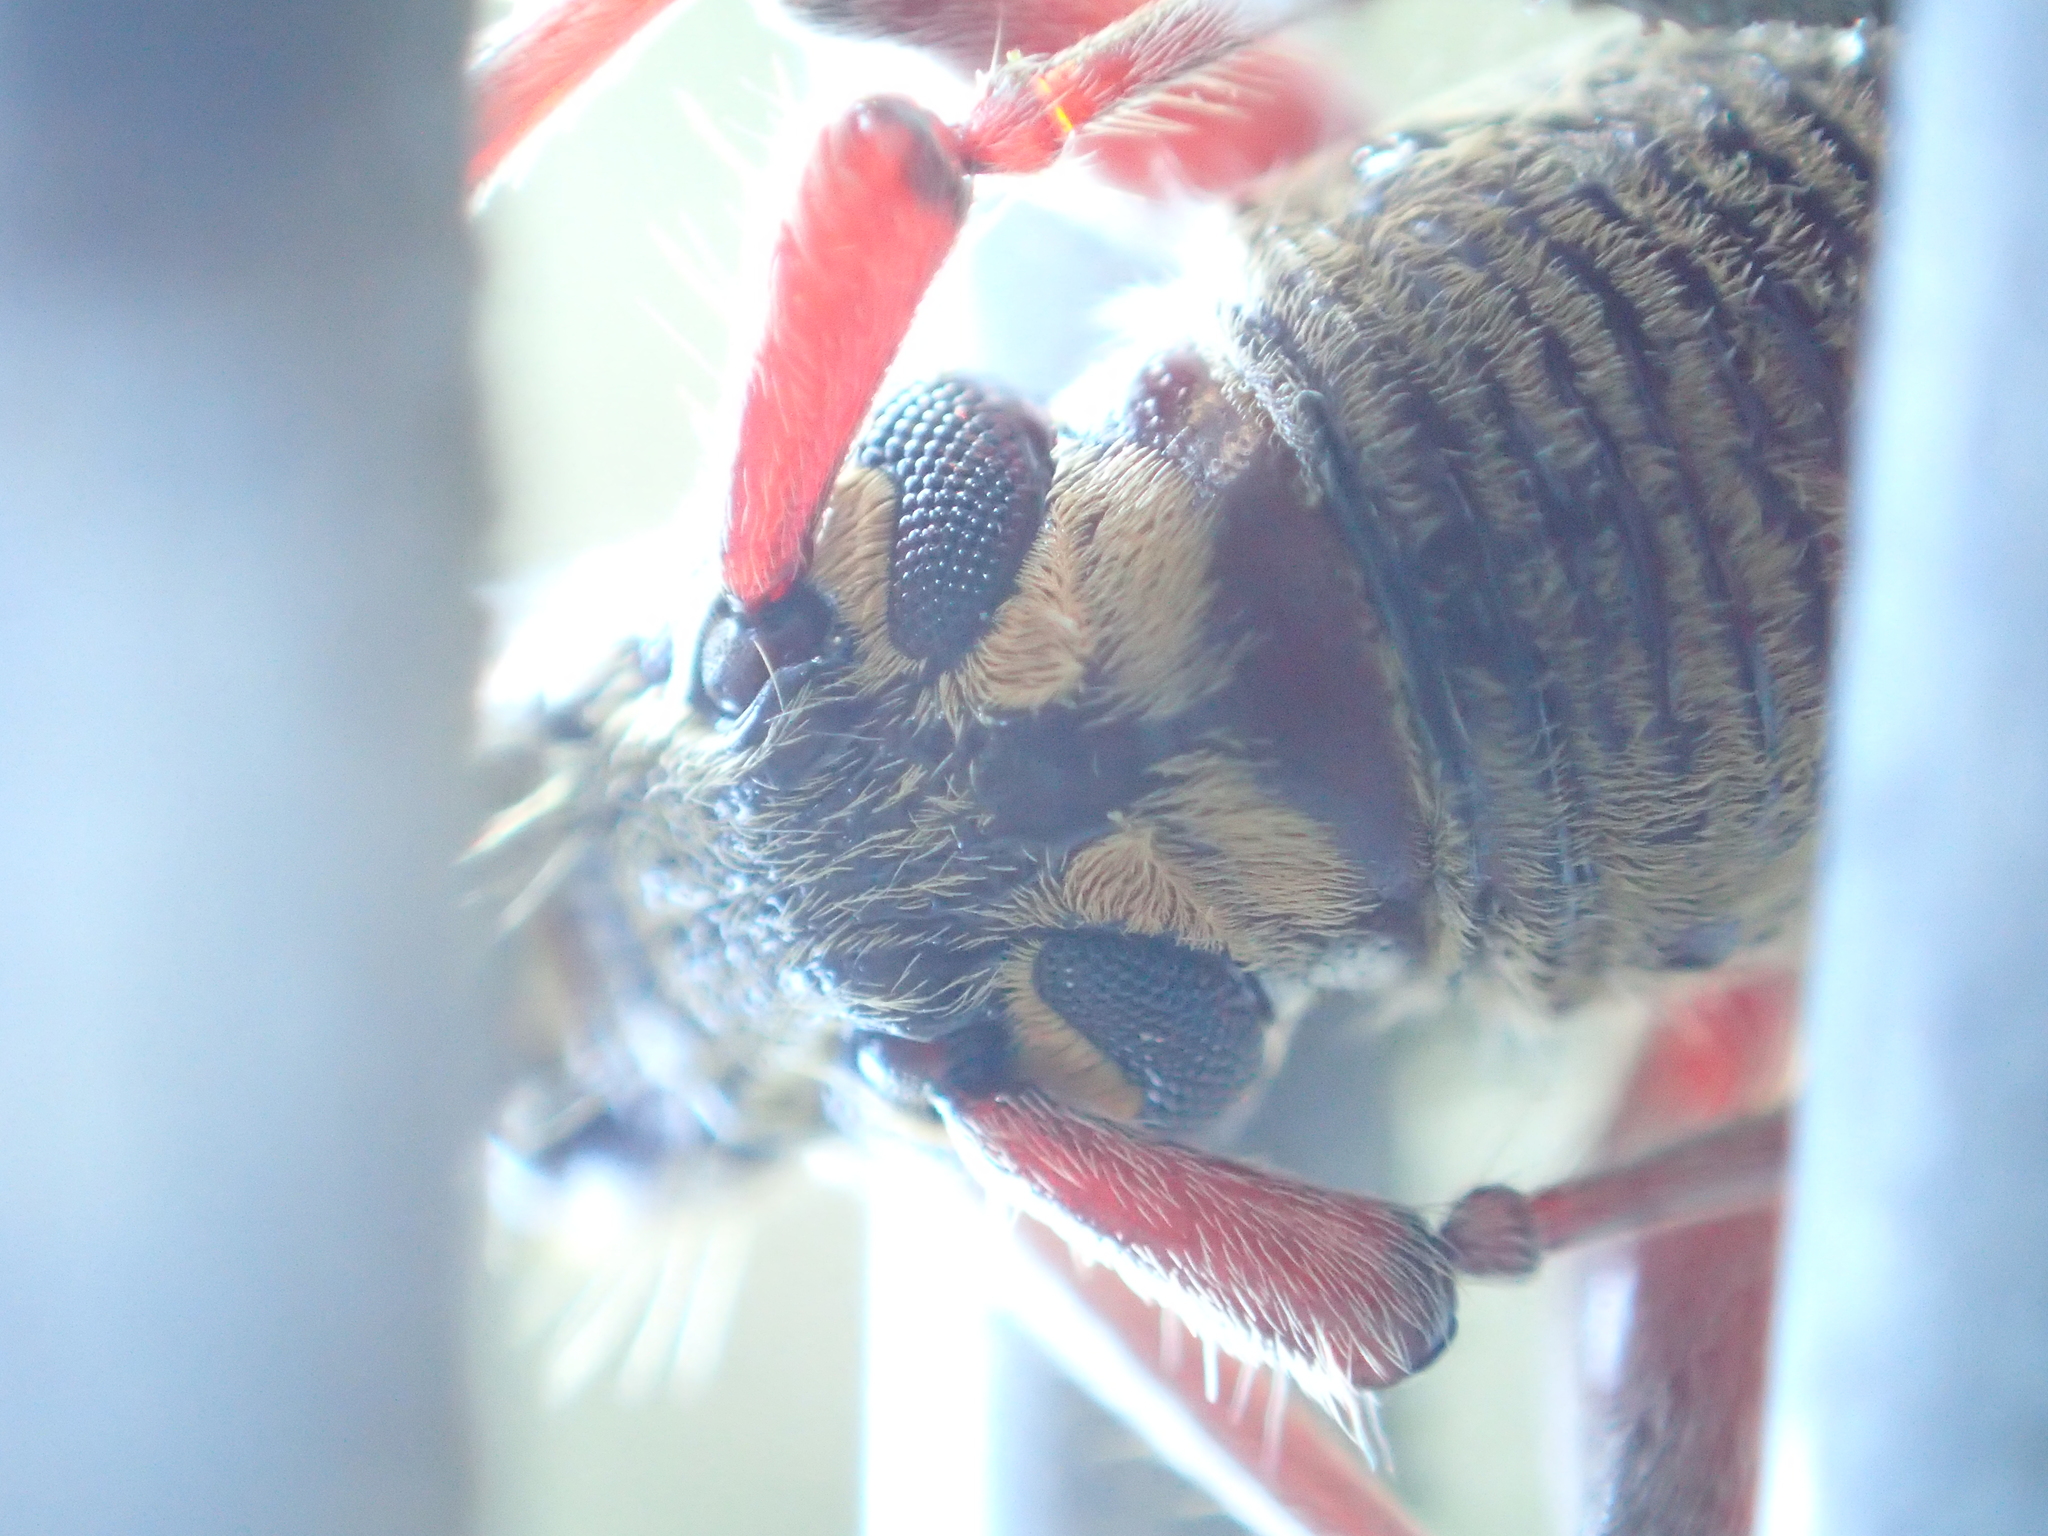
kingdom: Animalia
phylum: Arthropoda
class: Insecta
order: Coleoptera
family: Cerambycidae
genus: Oemona
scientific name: Oemona hirta
